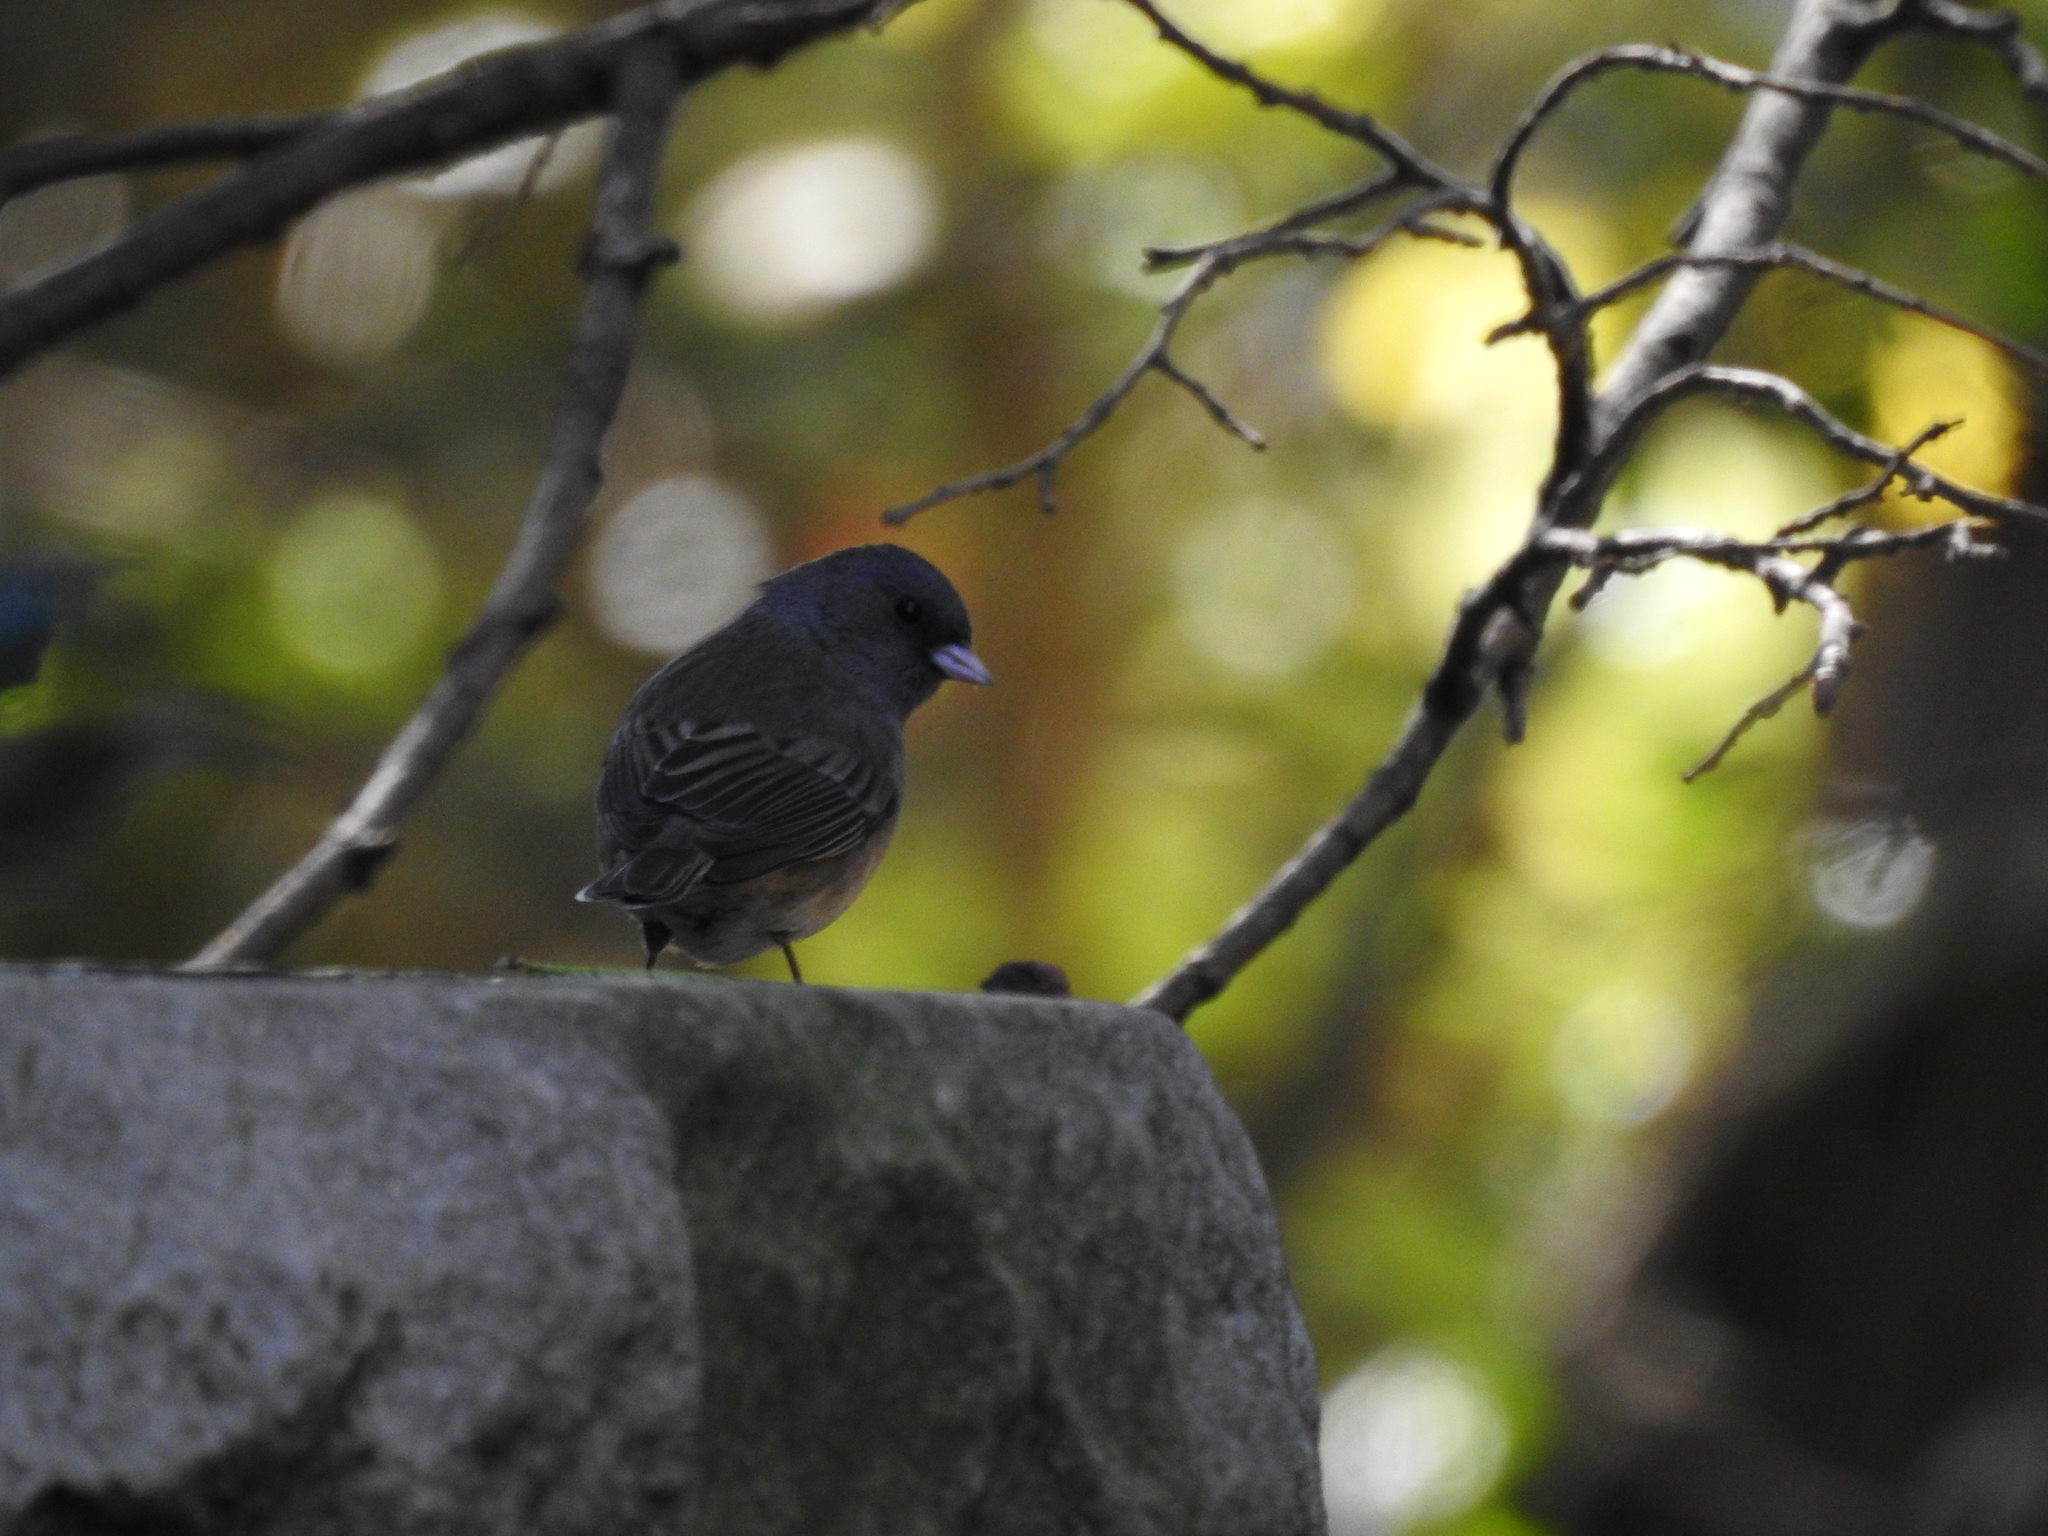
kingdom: Animalia
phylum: Chordata
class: Aves
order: Passeriformes
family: Passerellidae
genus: Junco
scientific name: Junco hyemalis
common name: Dark-eyed junco
